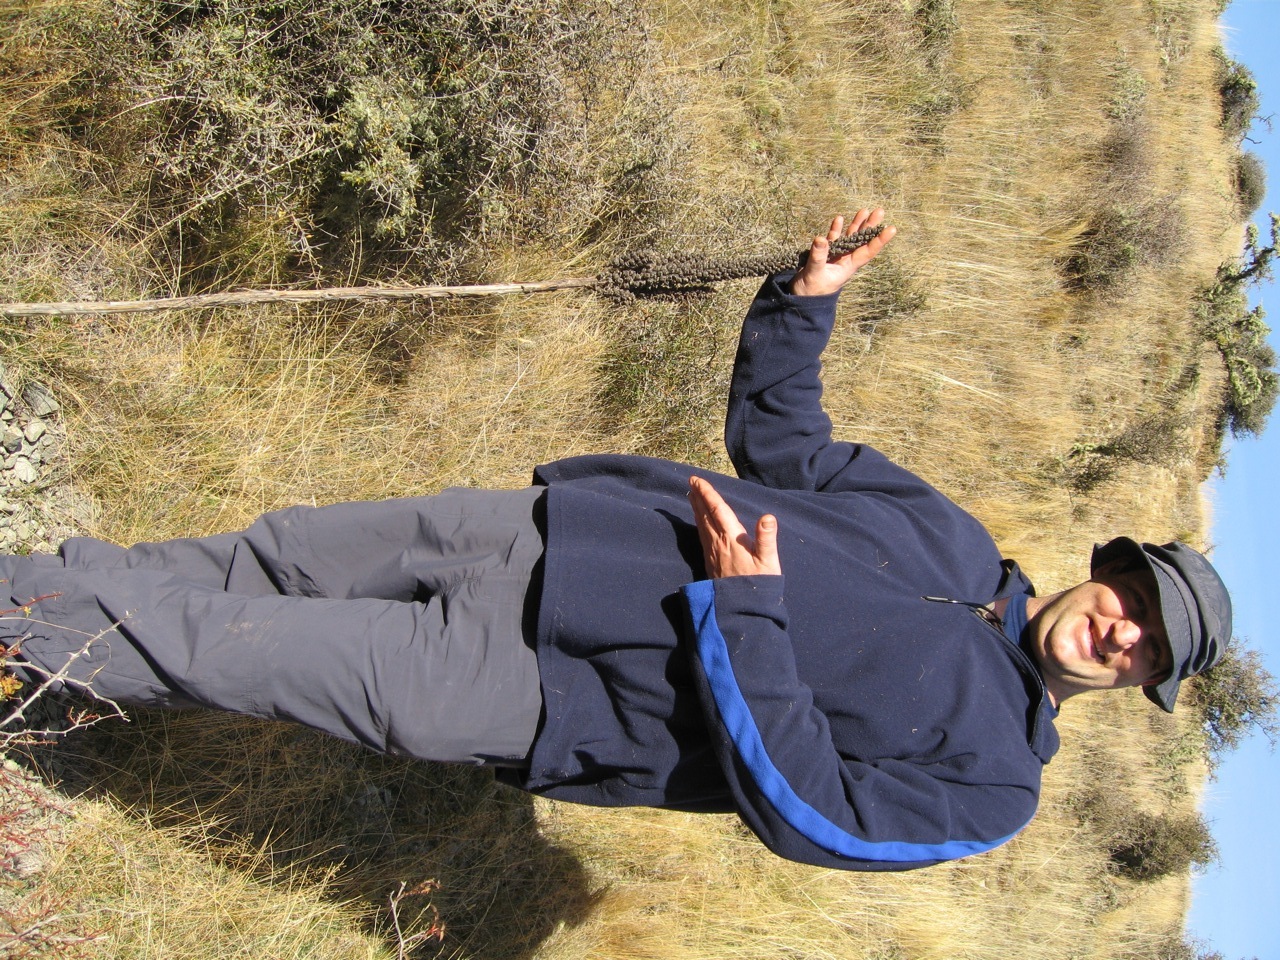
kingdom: Plantae
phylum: Tracheophyta
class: Magnoliopsida
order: Lamiales
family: Scrophulariaceae
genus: Verbascum
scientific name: Verbascum thapsus
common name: Common mullein
